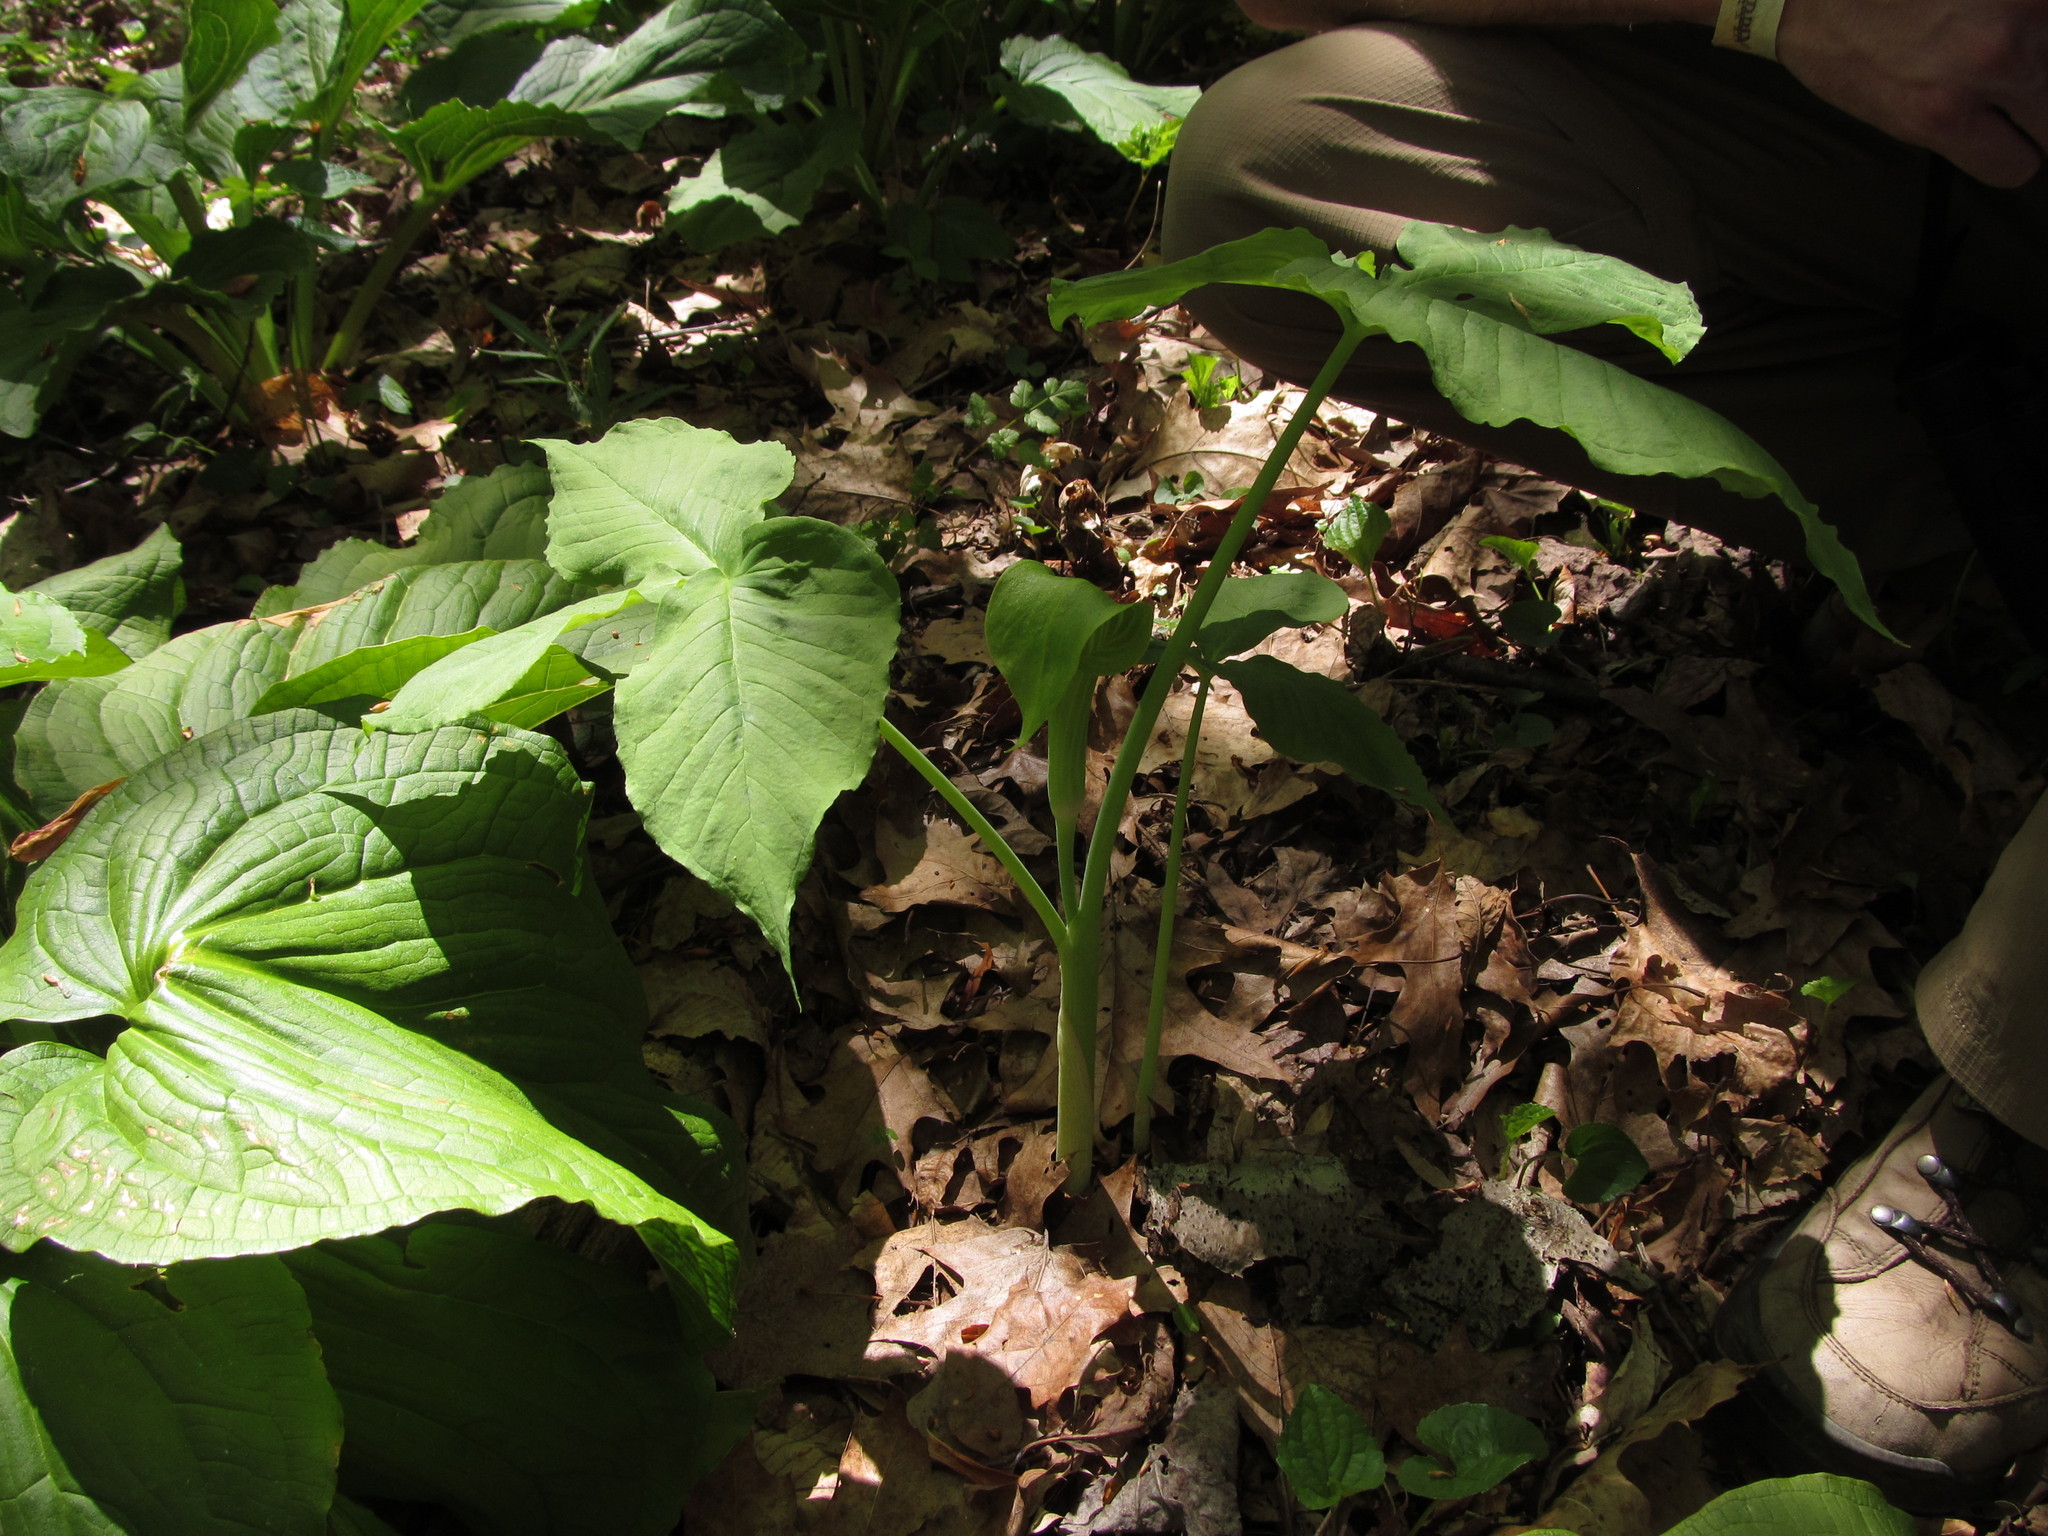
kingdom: Plantae
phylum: Tracheophyta
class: Liliopsida
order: Alismatales
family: Araceae
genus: Arisaema
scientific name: Arisaema triphyllum
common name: Jack-in-the-pulpit
